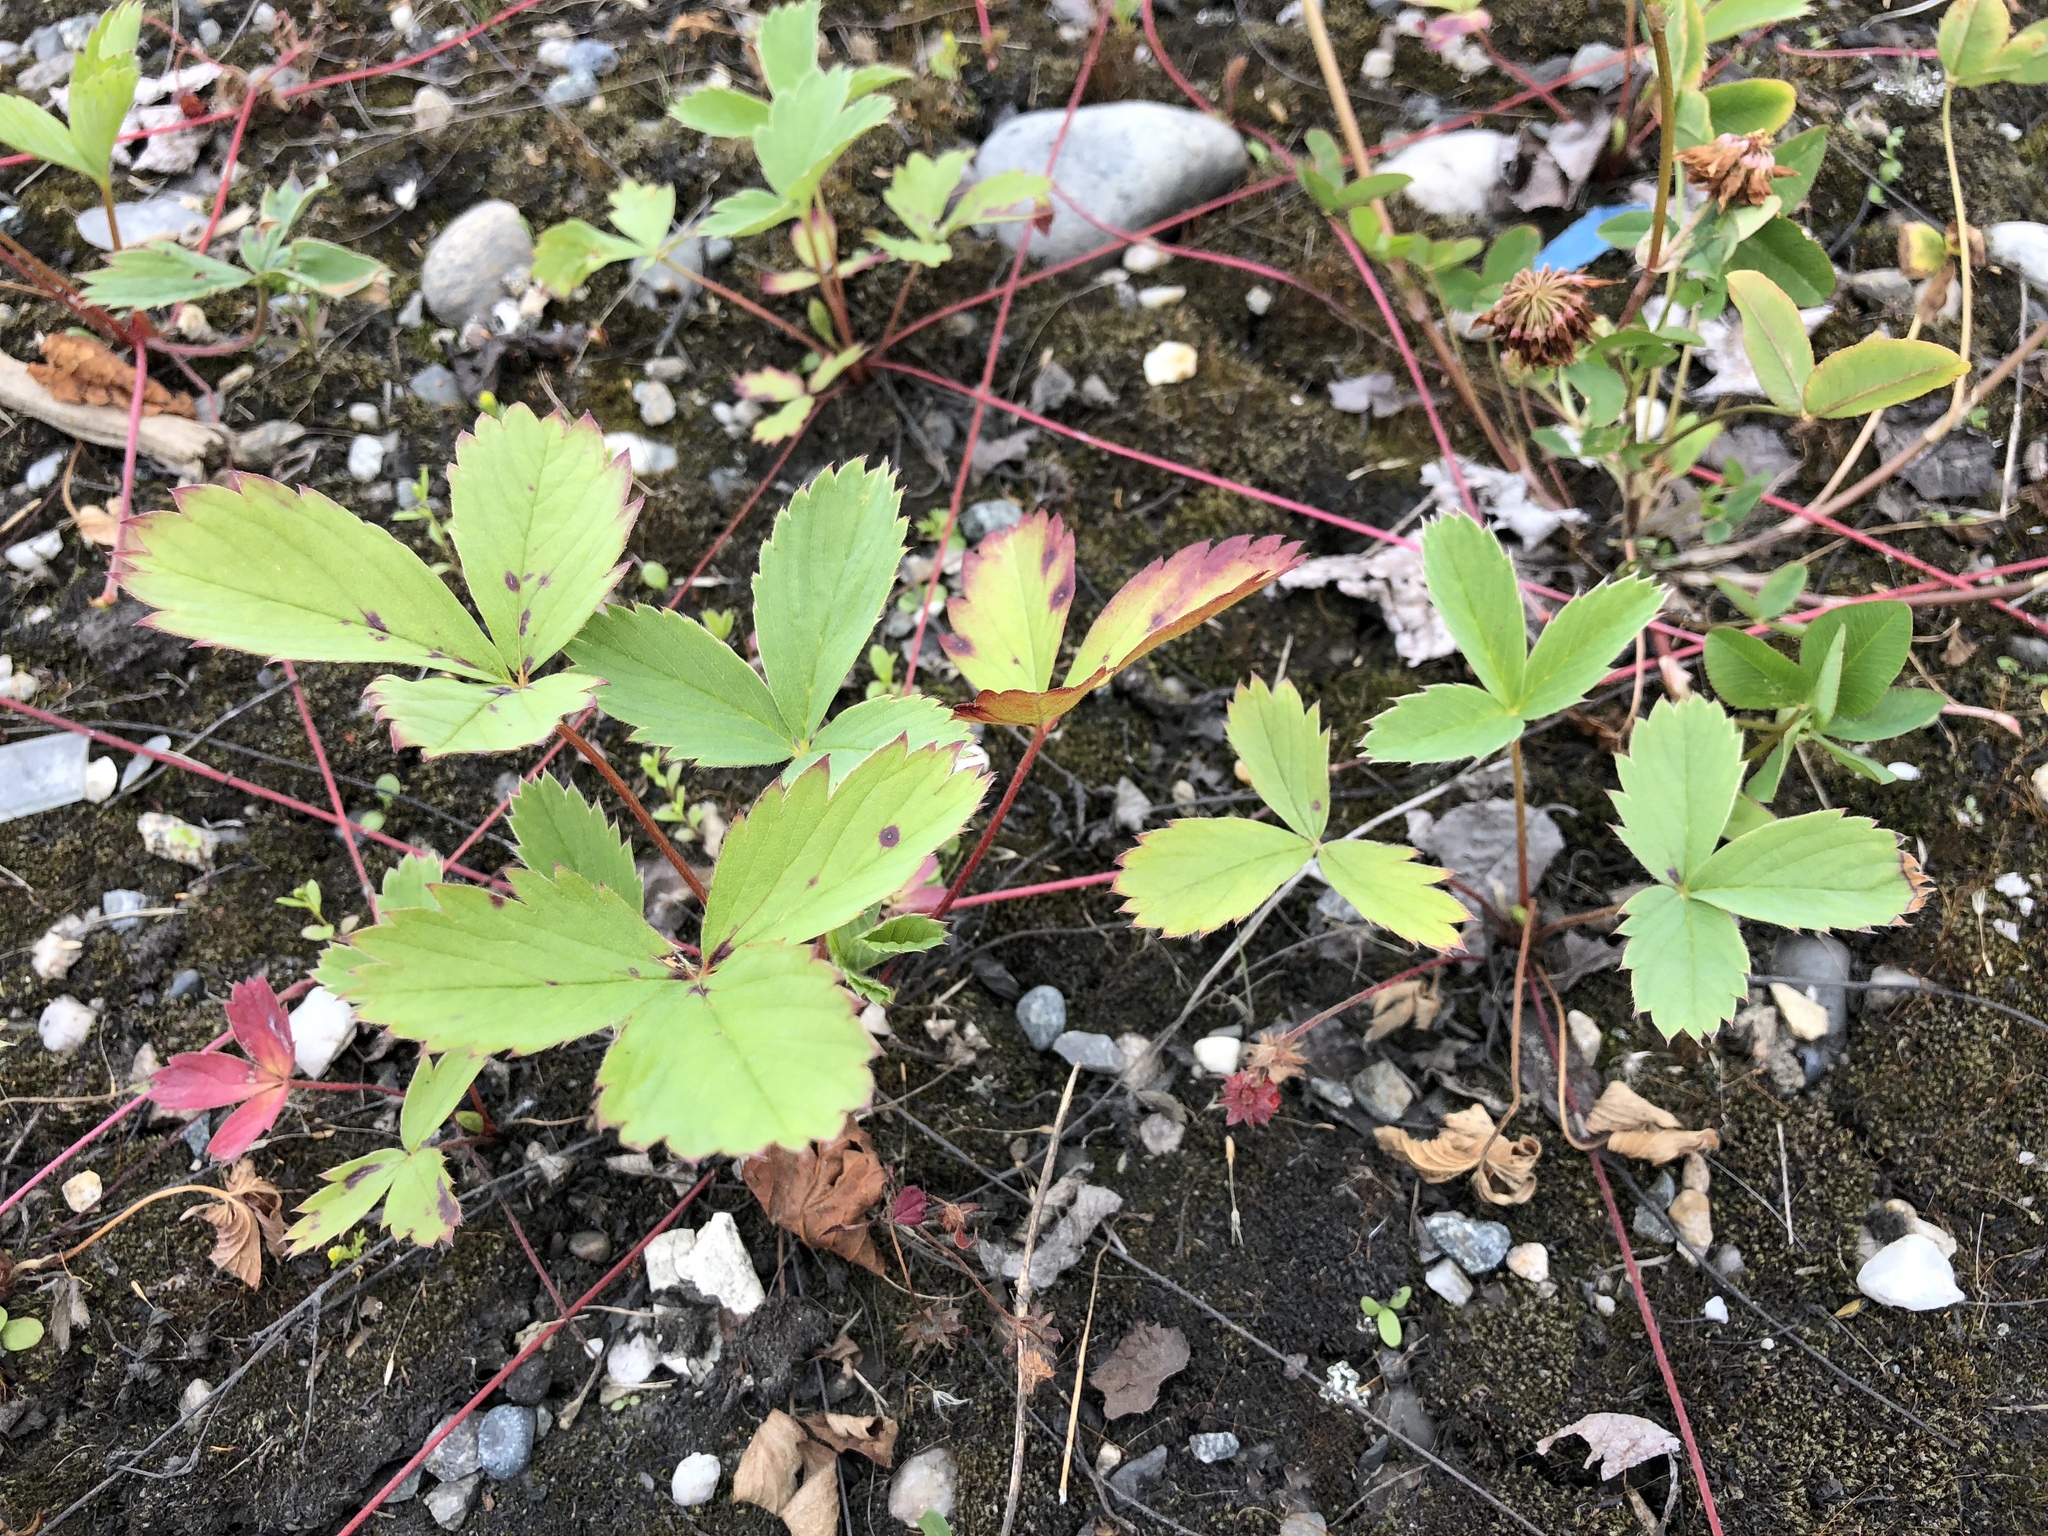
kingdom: Plantae
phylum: Tracheophyta
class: Magnoliopsida
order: Rosales
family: Rosaceae
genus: Fragaria
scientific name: Fragaria virginiana
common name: Thickleaved wild strawberry
